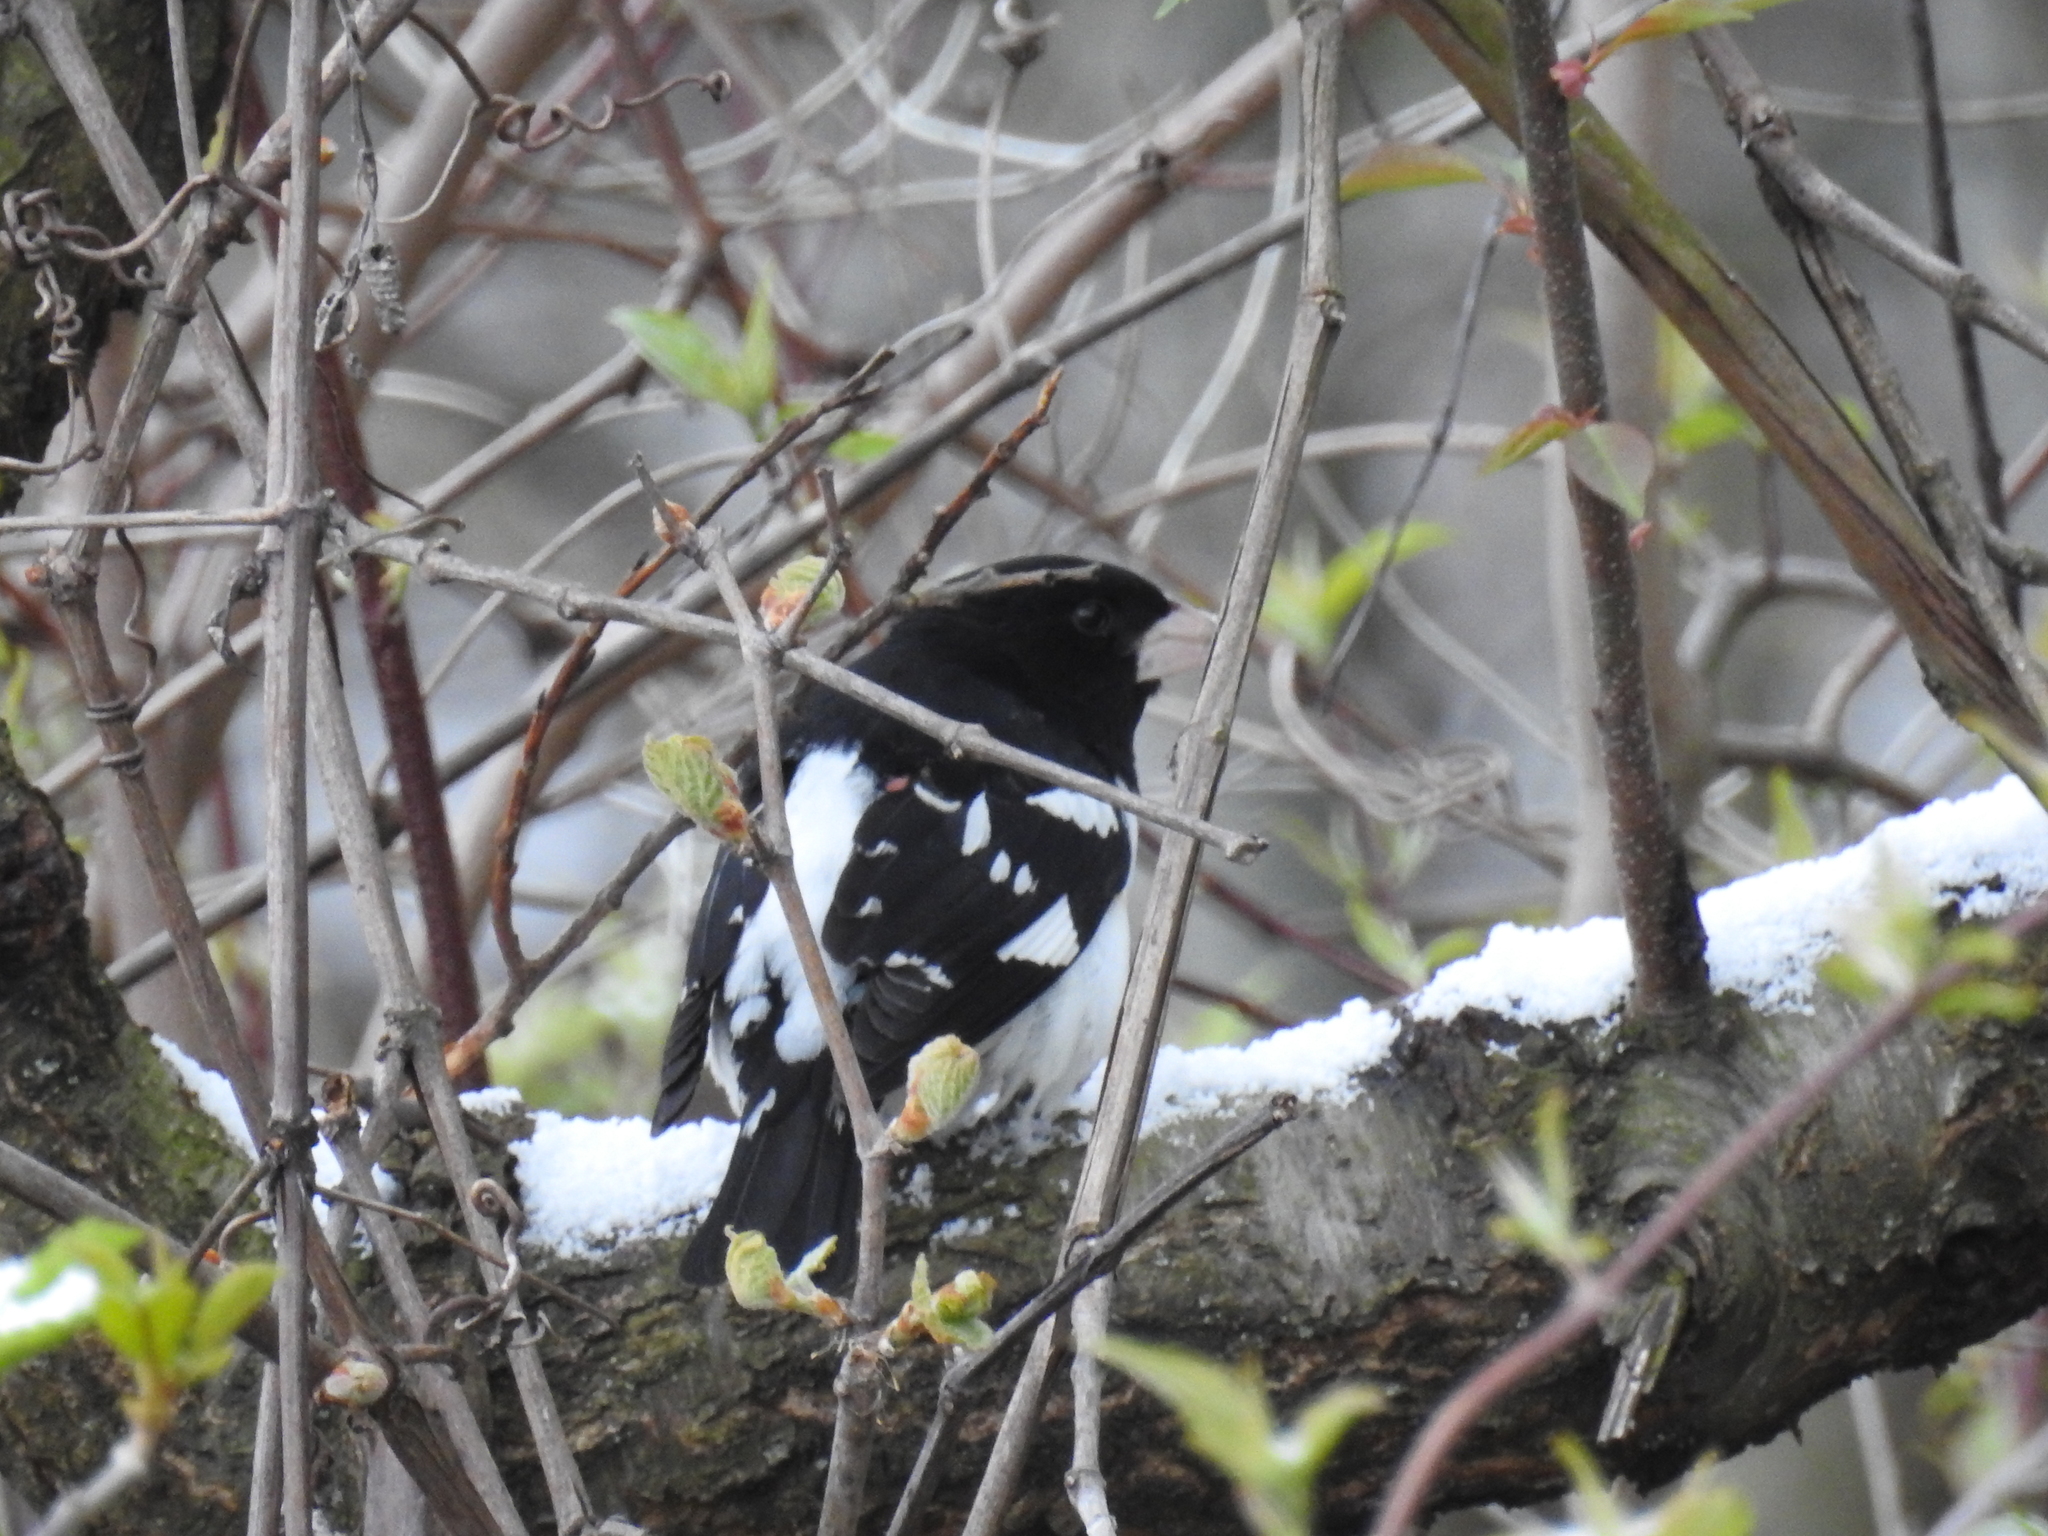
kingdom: Animalia
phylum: Chordata
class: Aves
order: Passeriformes
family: Cardinalidae
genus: Pheucticus
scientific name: Pheucticus ludovicianus
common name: Rose-breasted grosbeak
